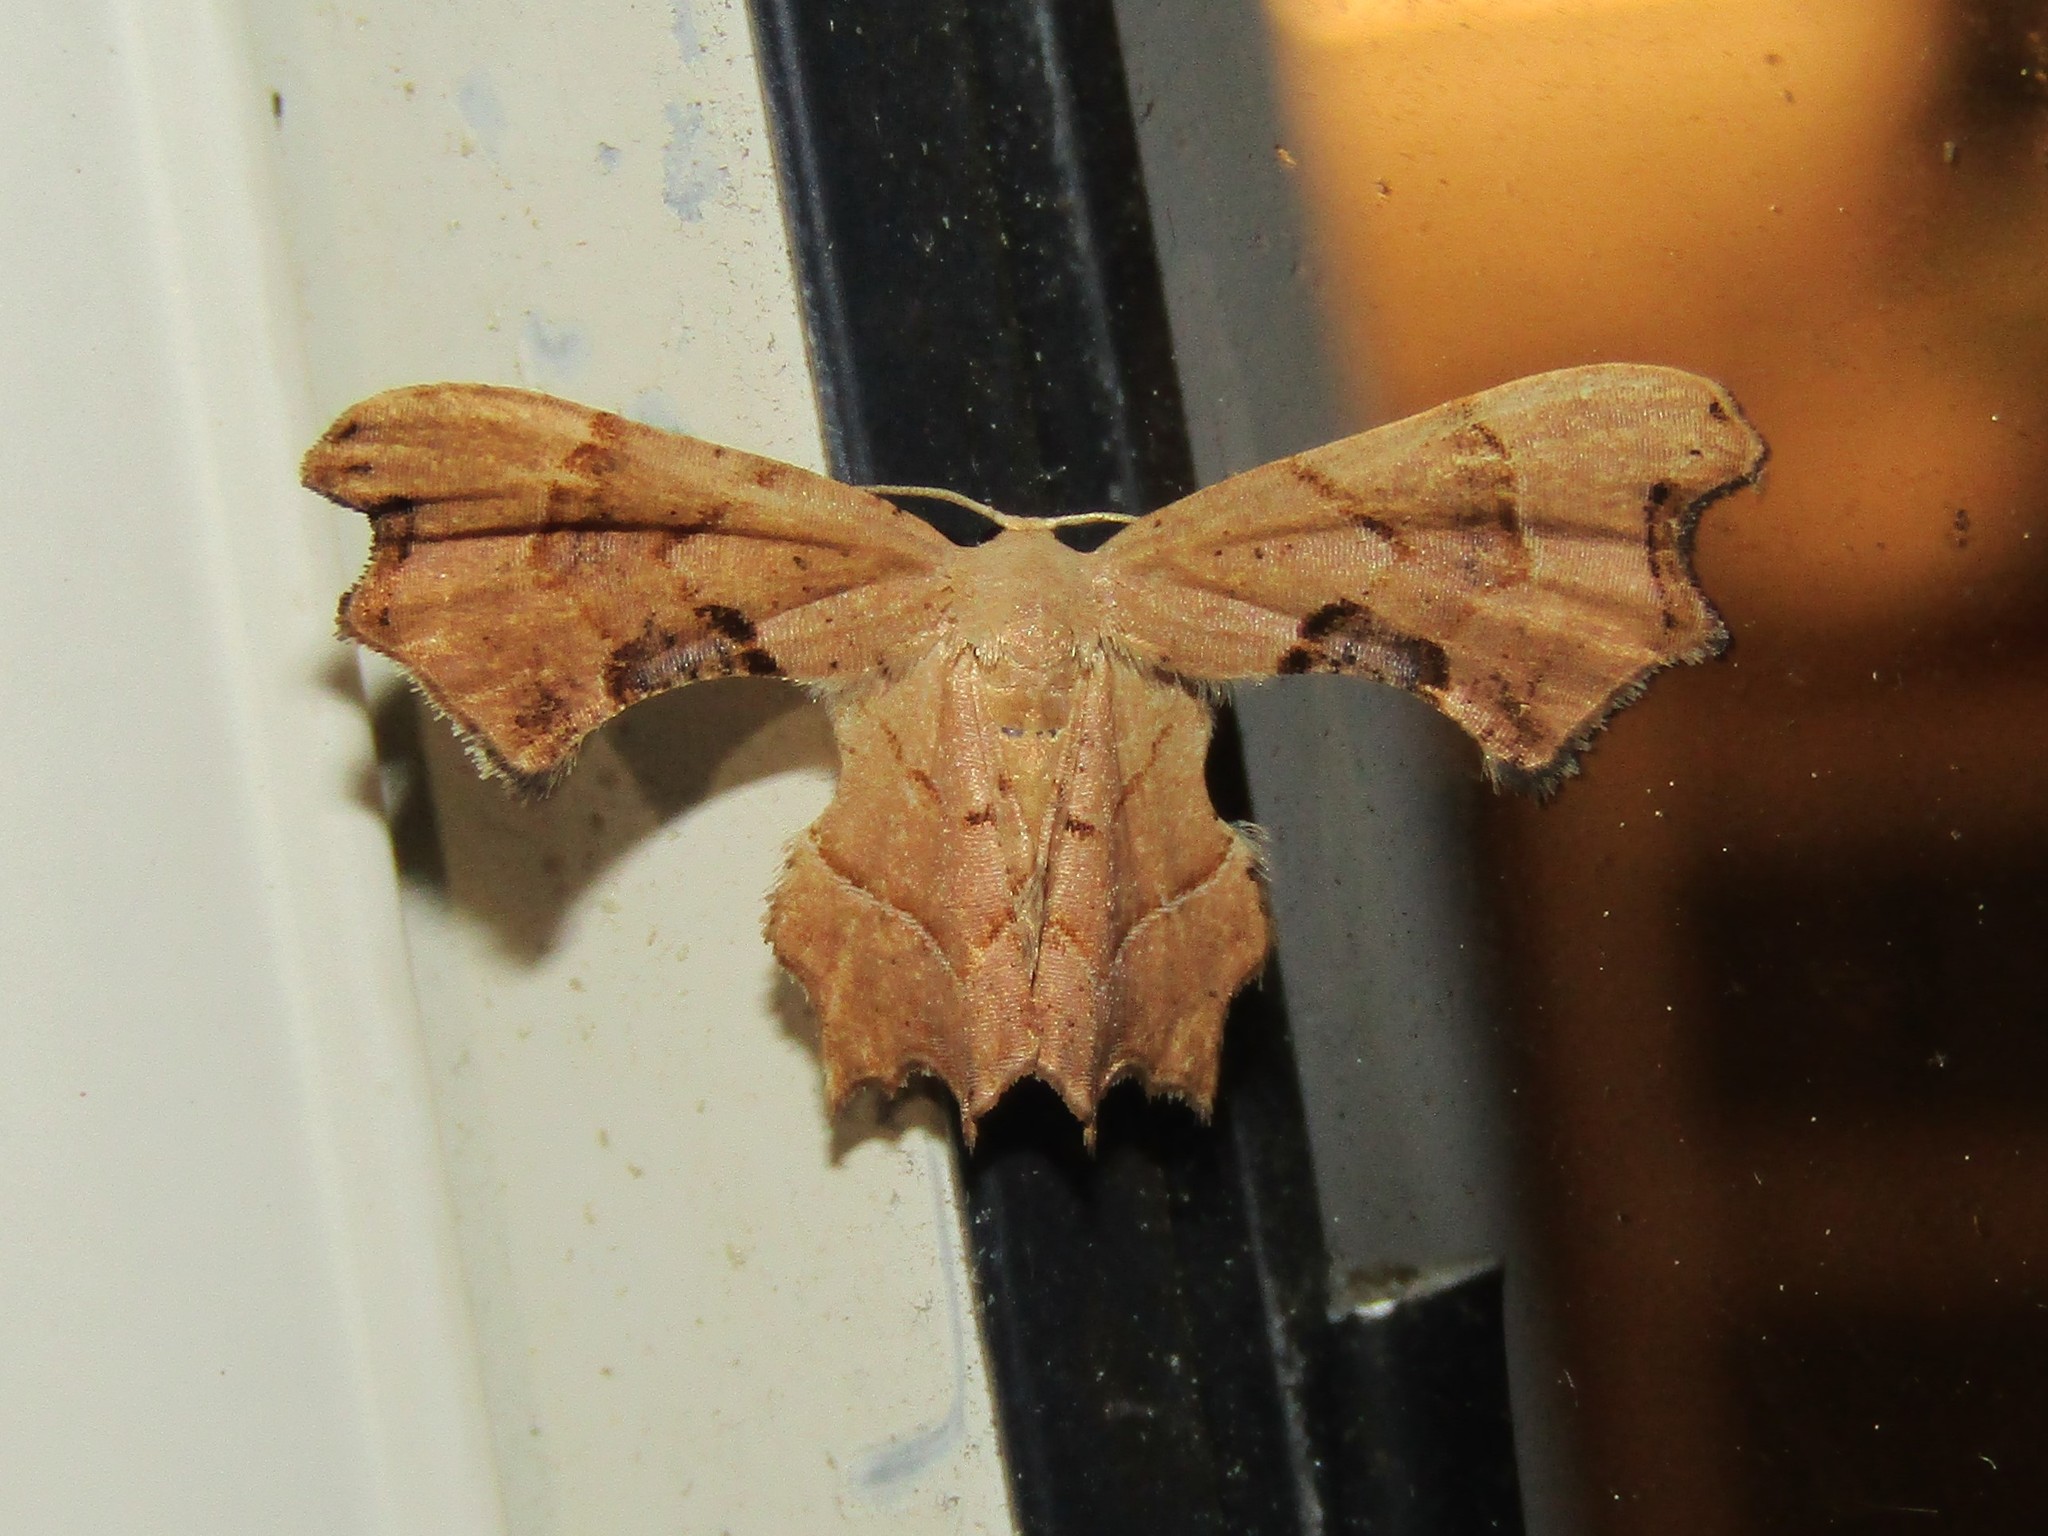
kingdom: Animalia
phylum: Arthropoda
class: Insecta
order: Lepidoptera
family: Uraniidae
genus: Epiplema
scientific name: Epiplema Calledapteryx dryopterata
